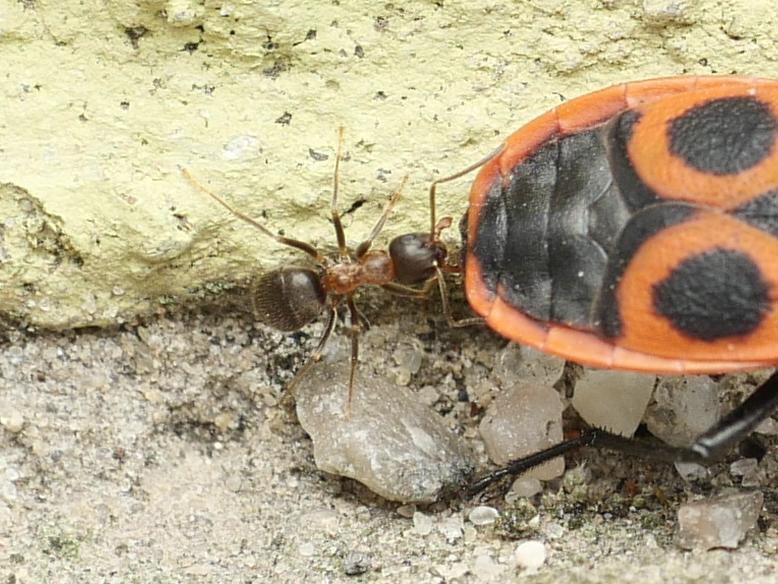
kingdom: Animalia
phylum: Arthropoda
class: Insecta
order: Hymenoptera
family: Formicidae
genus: Lasius
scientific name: Lasius emarginatus
